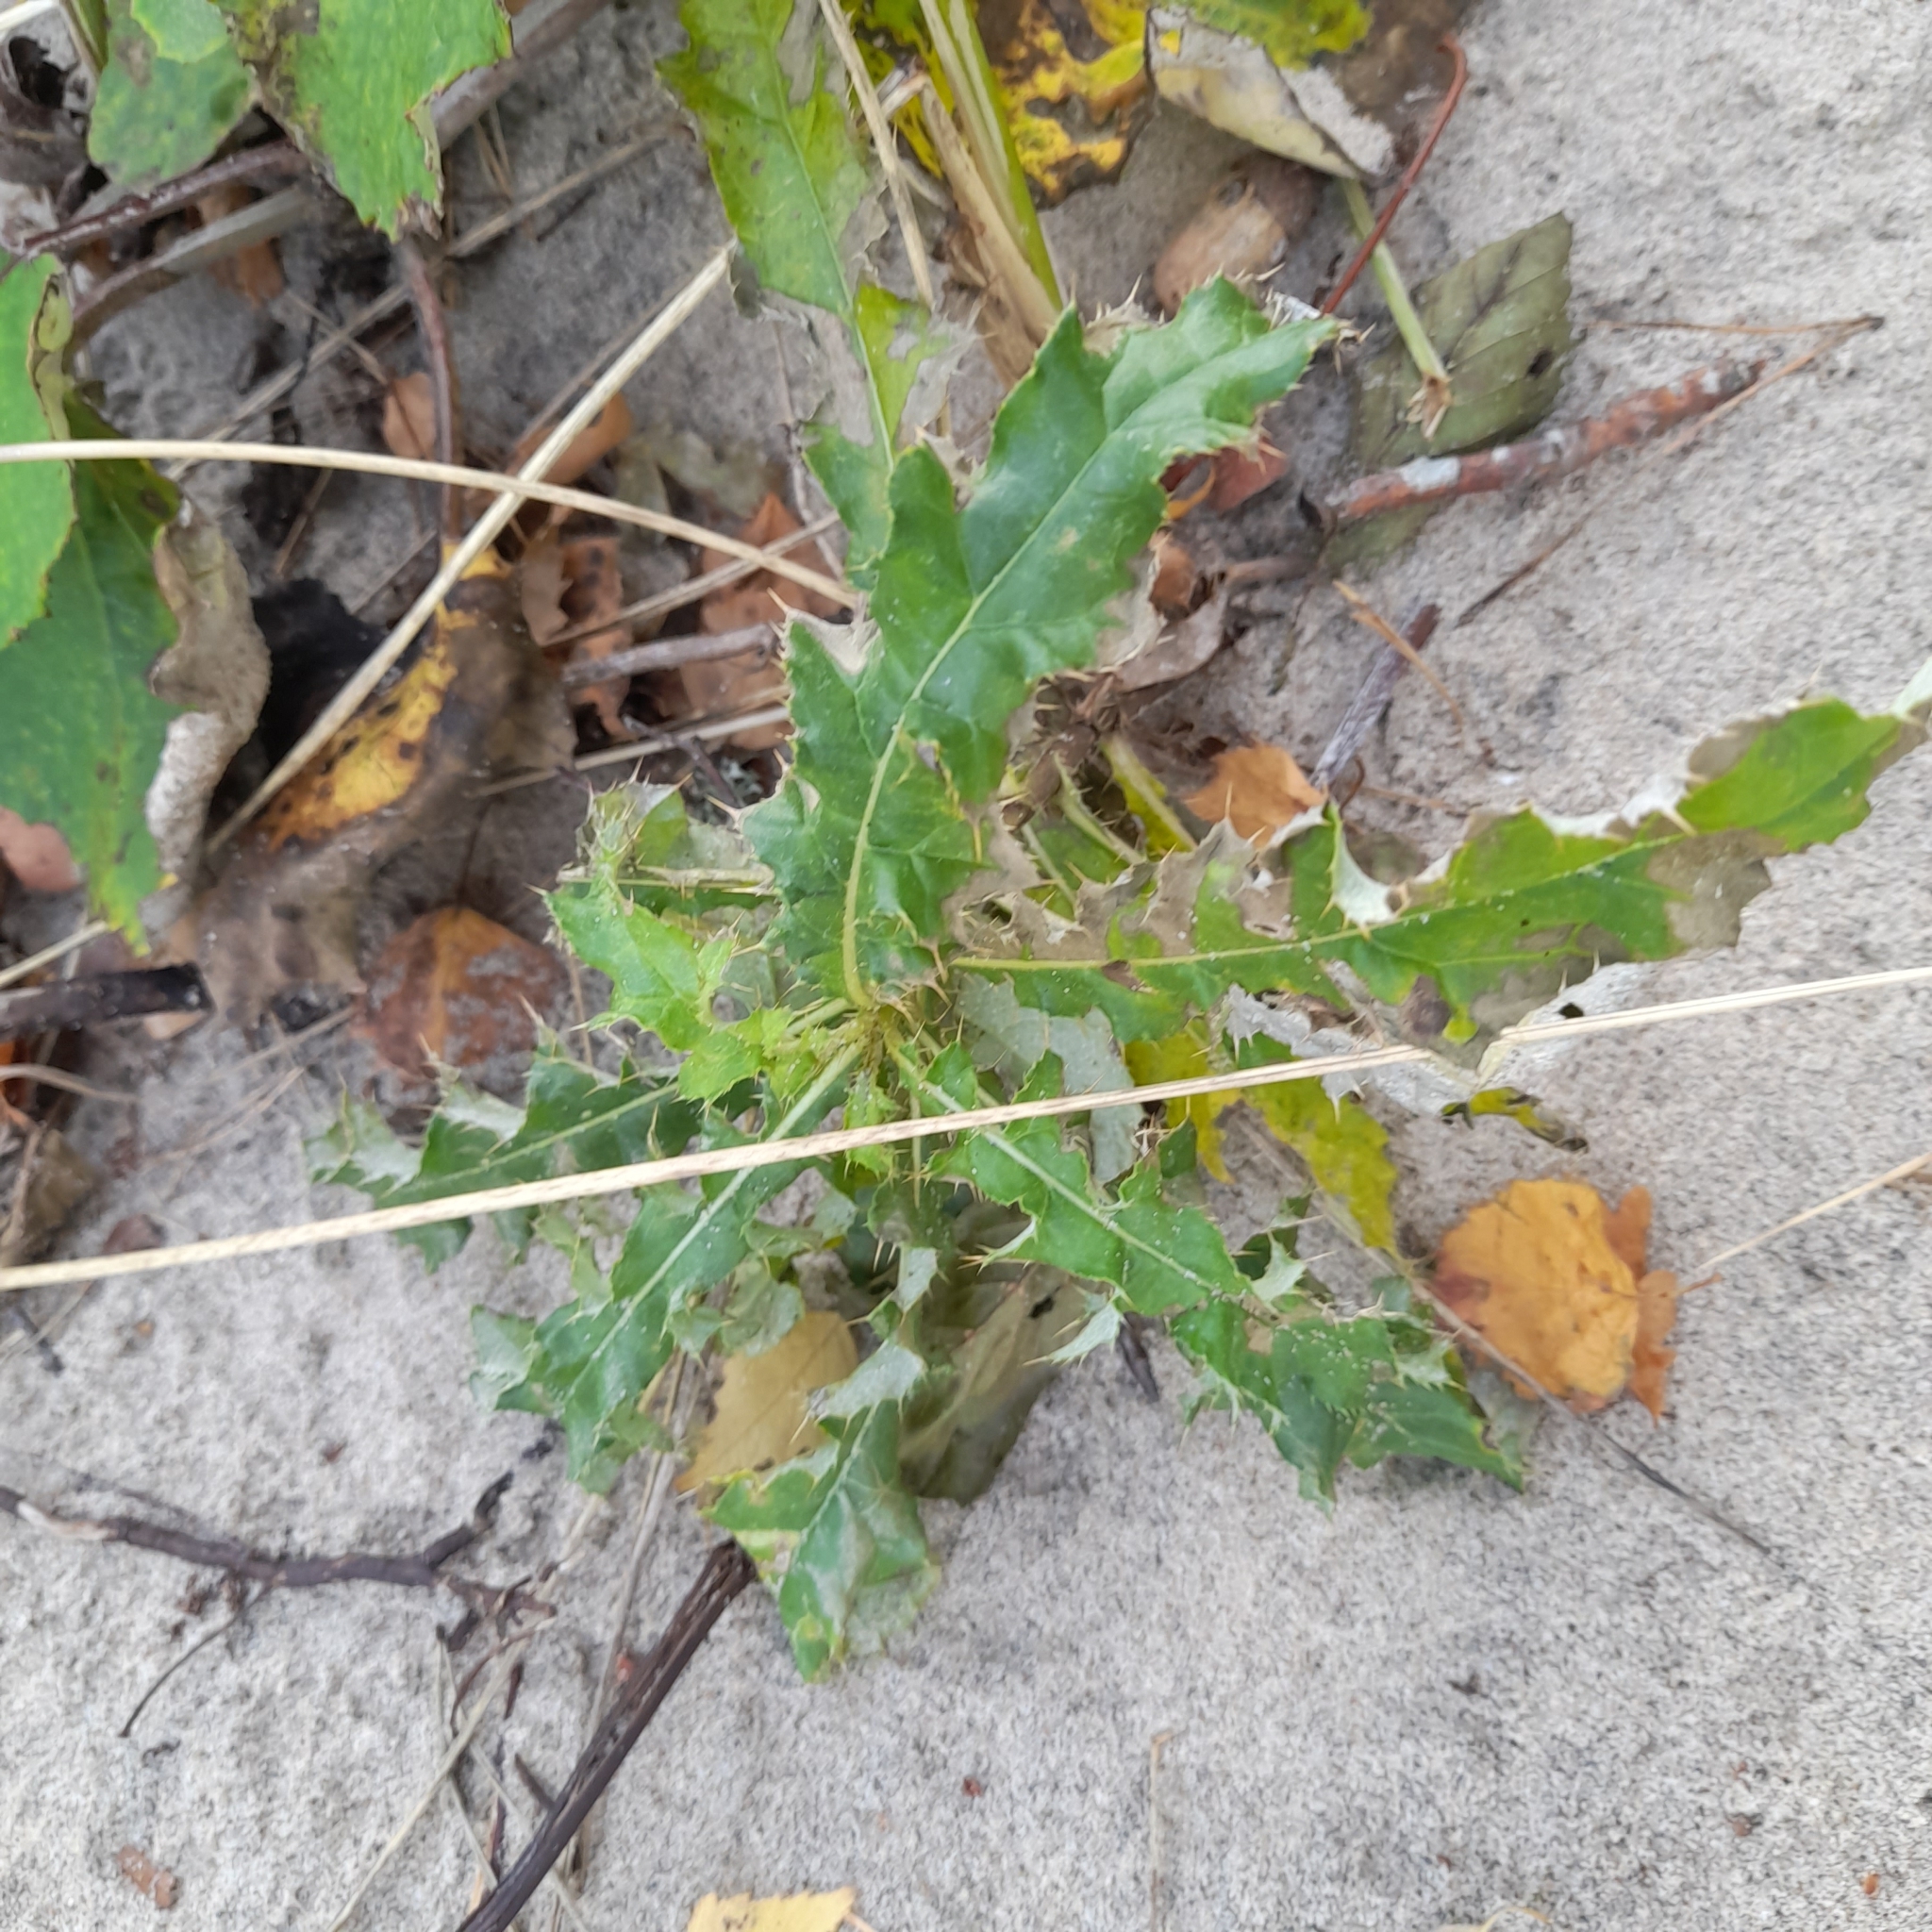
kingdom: Plantae
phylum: Tracheophyta
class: Magnoliopsida
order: Asterales
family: Asteraceae
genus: Cirsium
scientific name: Cirsium arvense
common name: Creeping thistle
